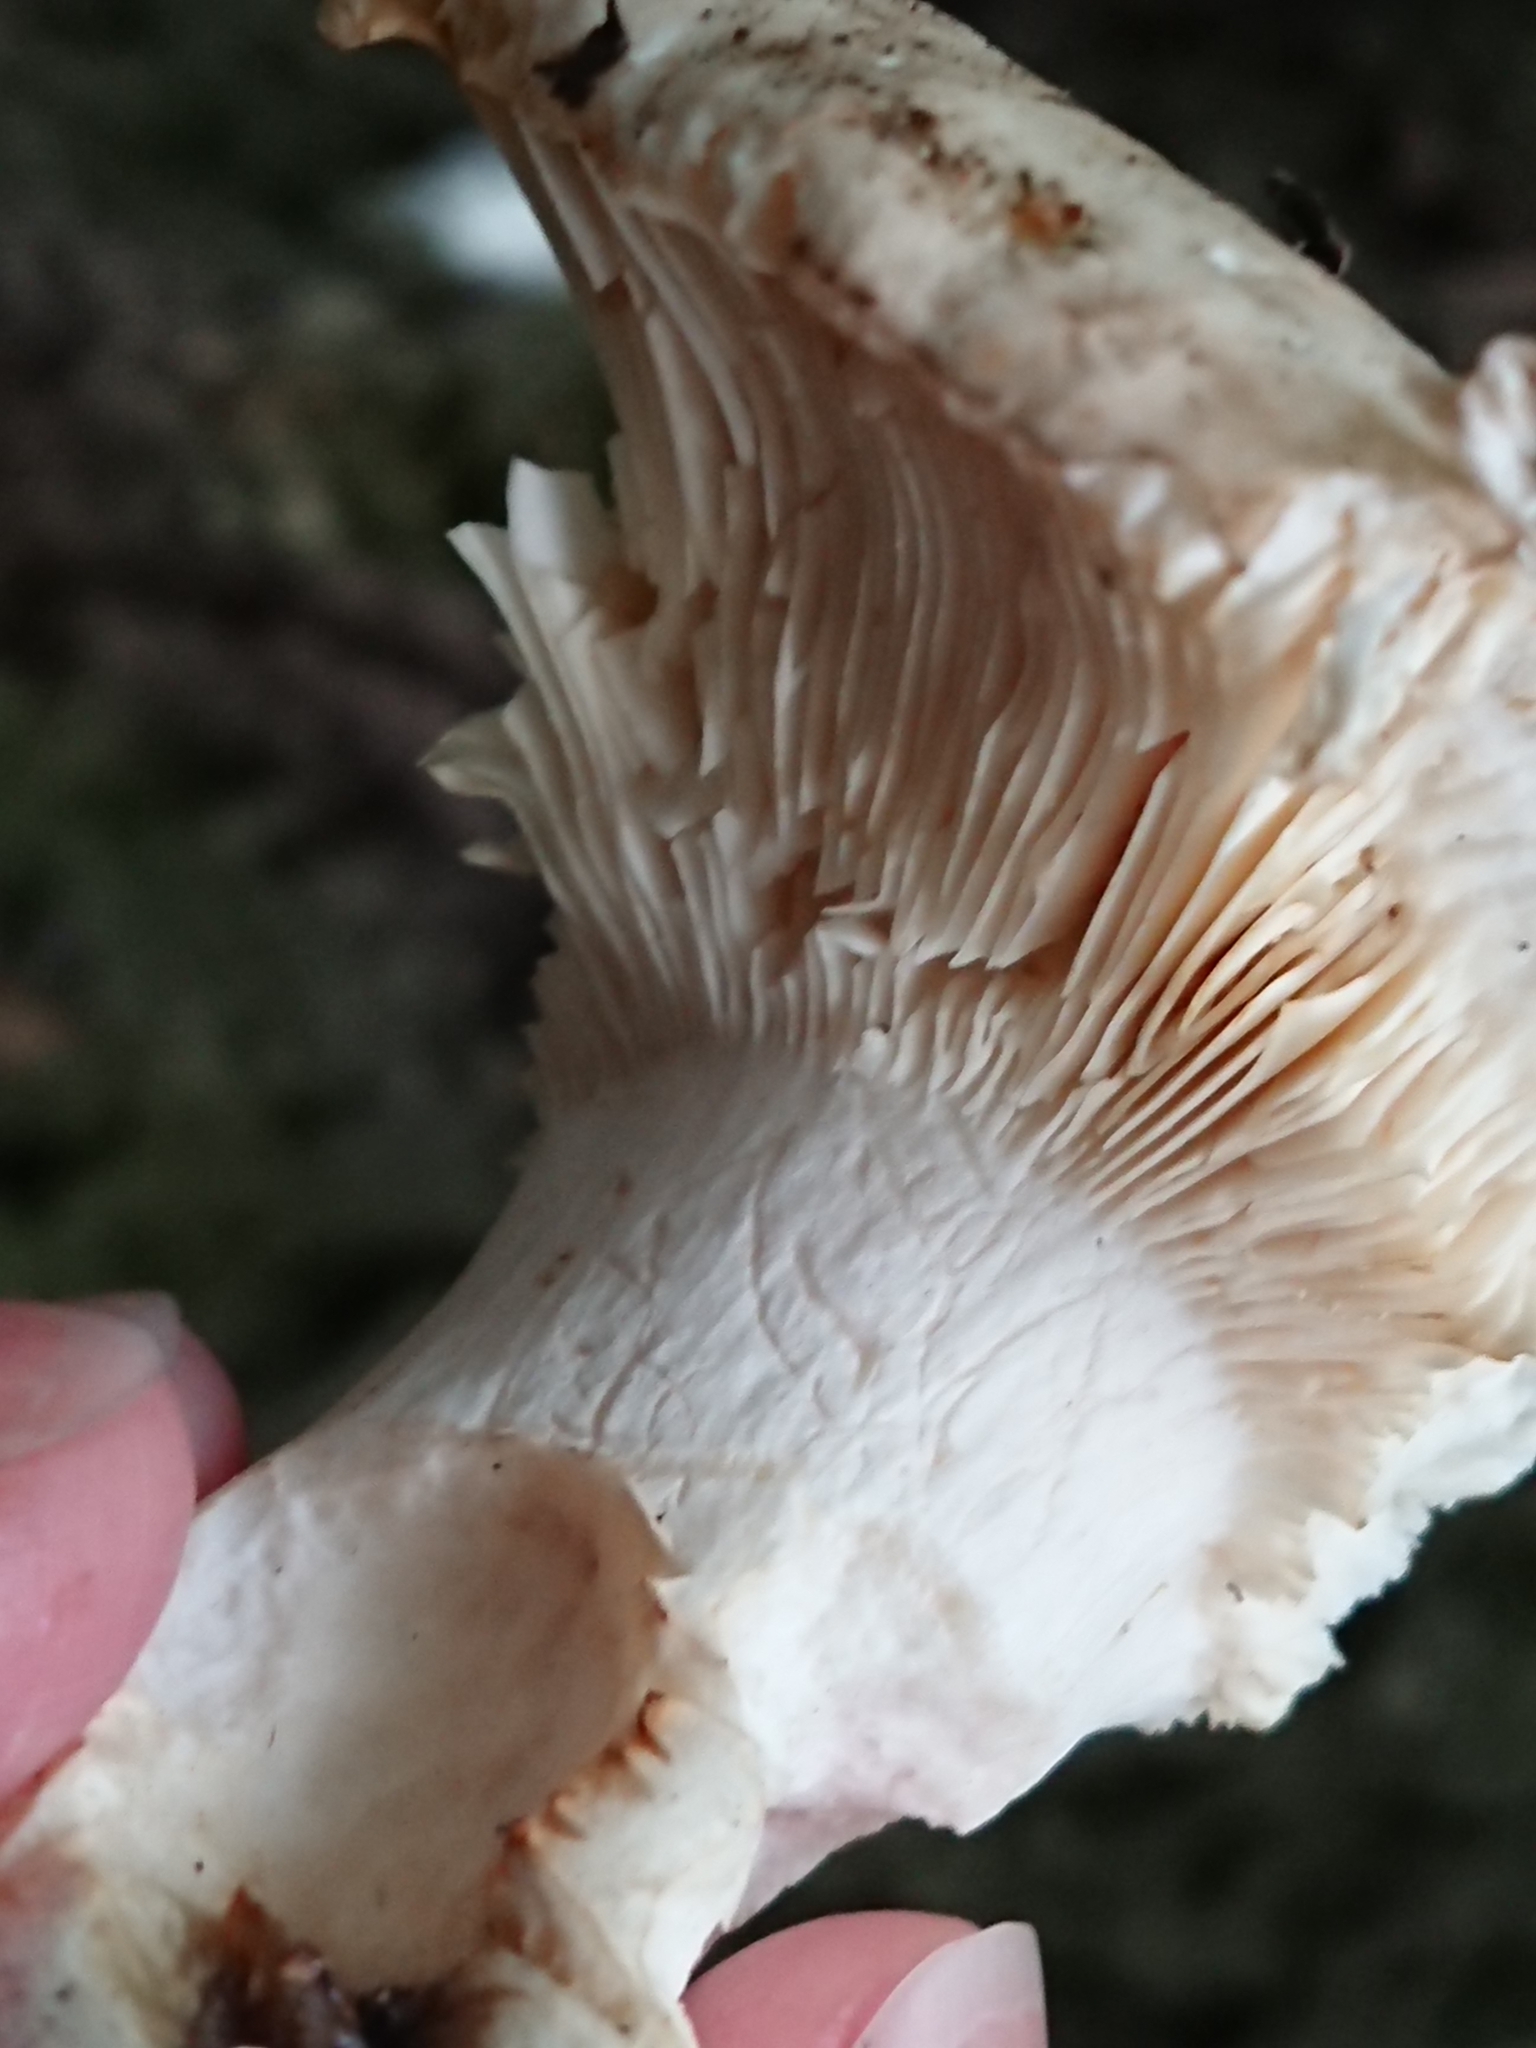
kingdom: Fungi
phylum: Basidiomycota
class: Agaricomycetes
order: Russulales
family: Russulaceae
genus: Russula
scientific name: Russula grisea
